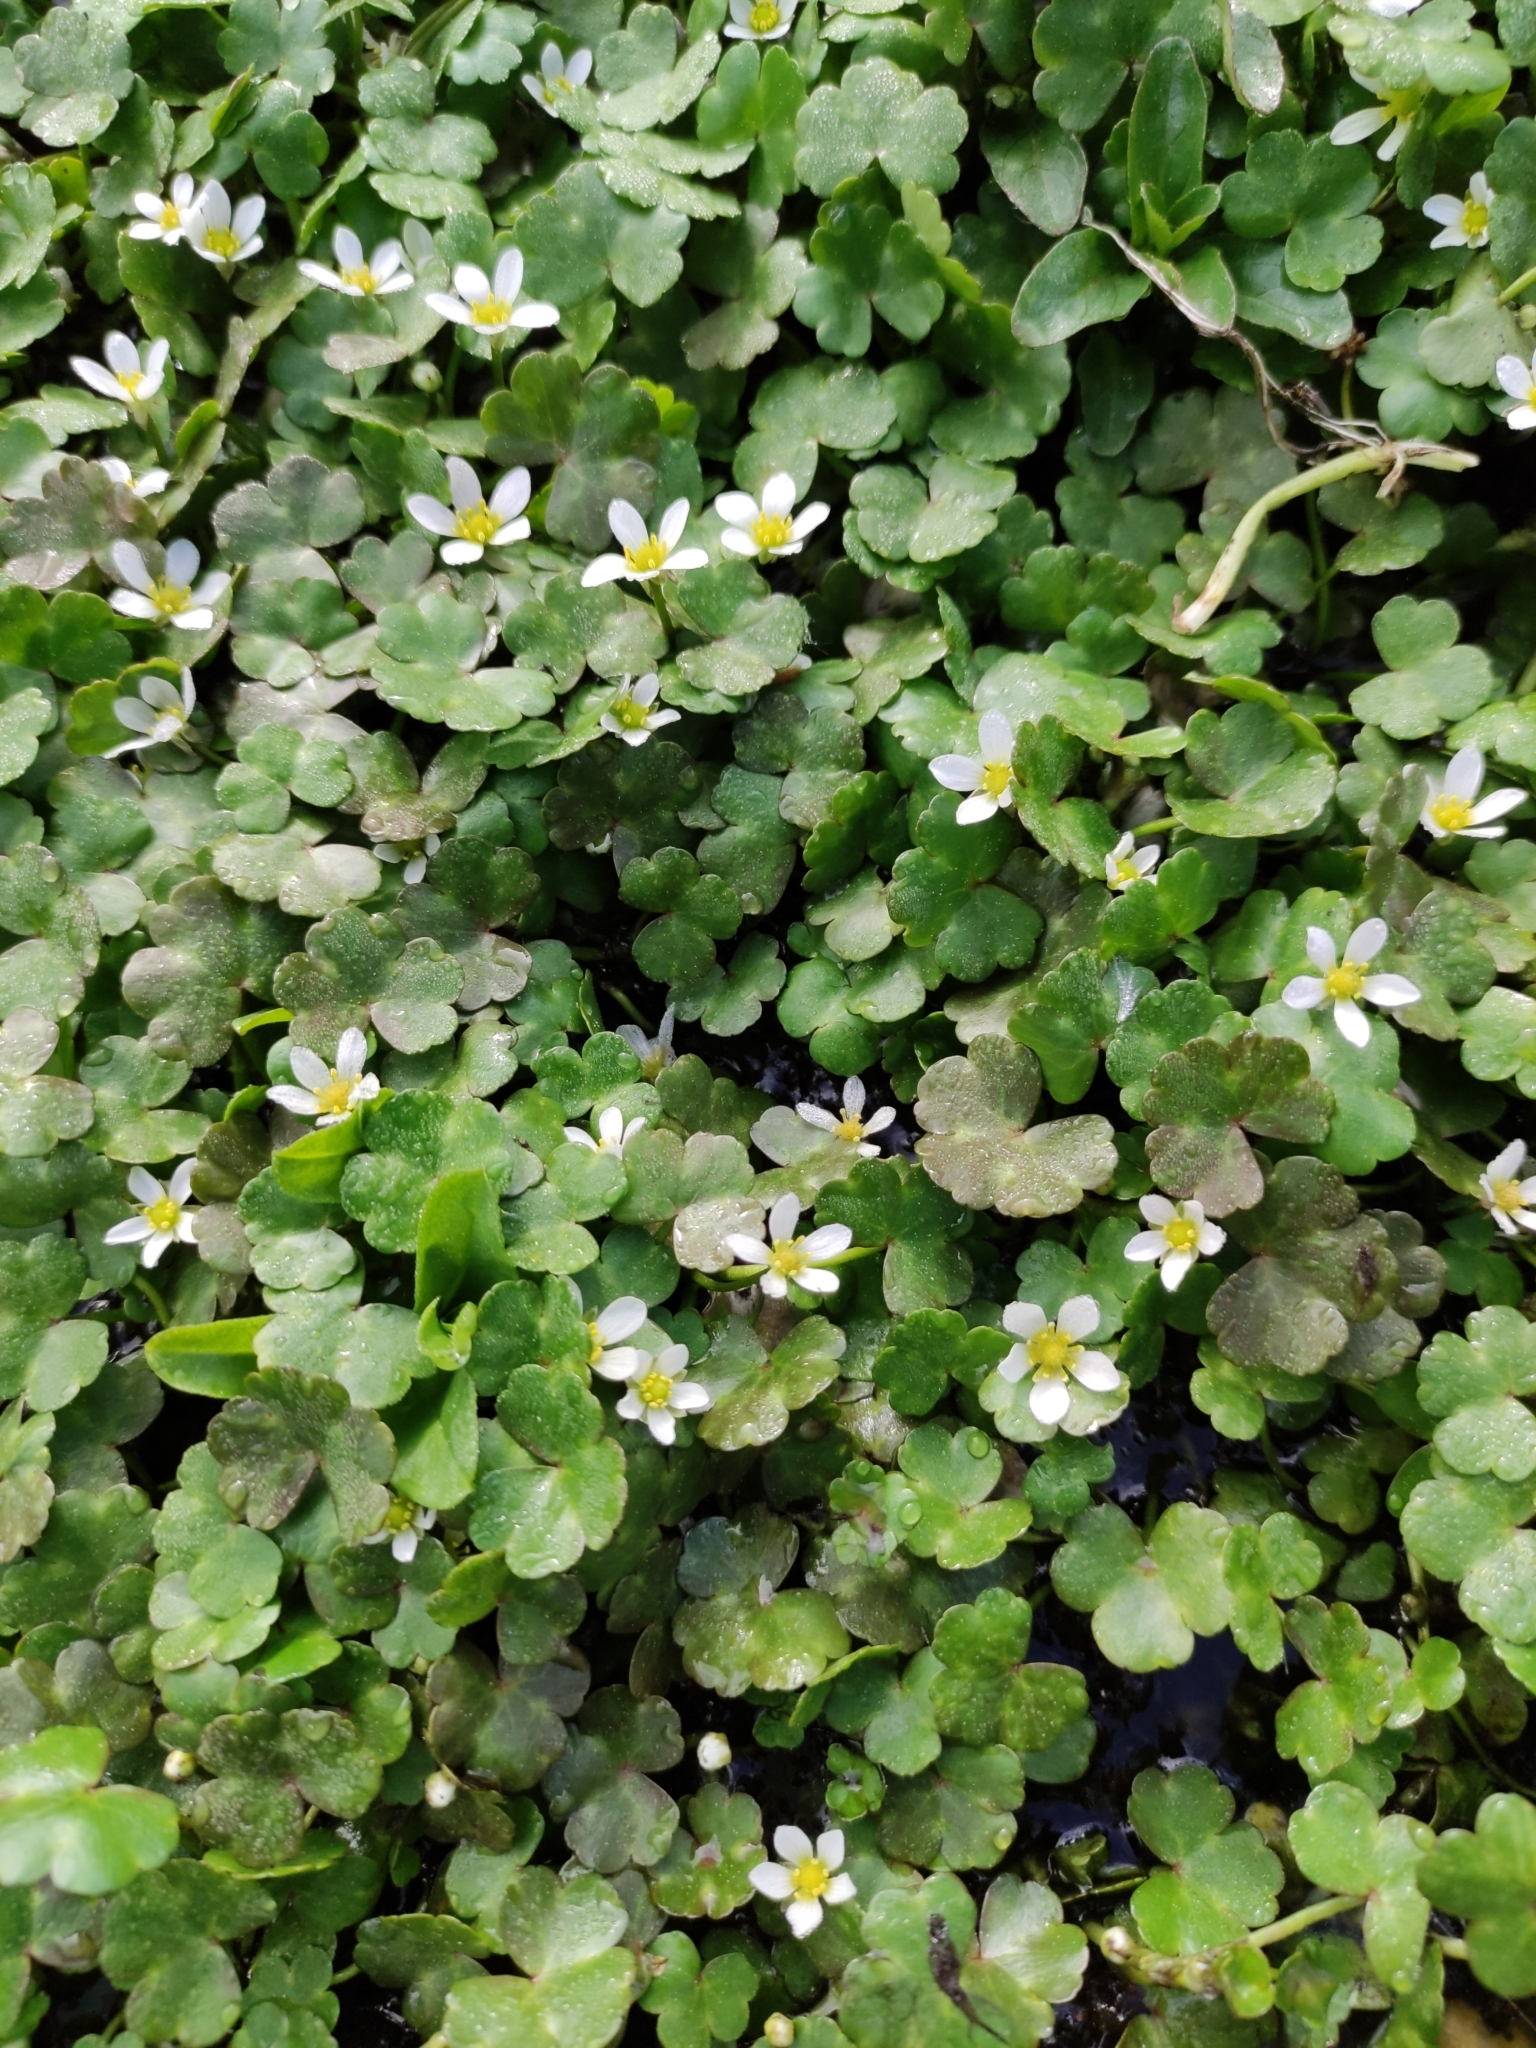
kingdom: Plantae
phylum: Tracheophyta
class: Magnoliopsida
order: Ranunculales
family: Ranunculaceae
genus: Ranunculus
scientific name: Ranunculus omiophyllus
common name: Round-leaved crowfoot
